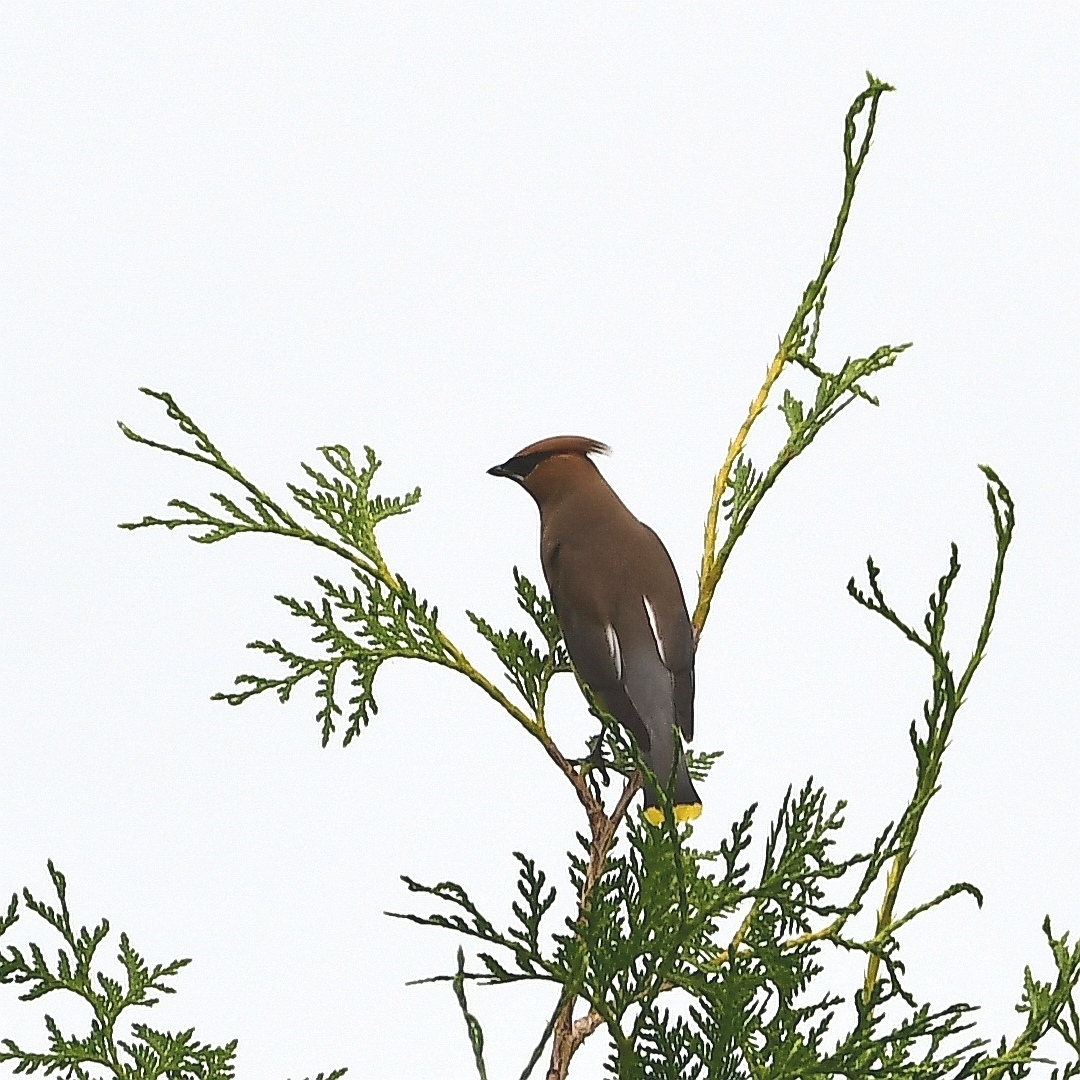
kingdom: Animalia
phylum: Chordata
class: Aves
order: Passeriformes
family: Bombycillidae
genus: Bombycilla
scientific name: Bombycilla cedrorum
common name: Cedar waxwing
